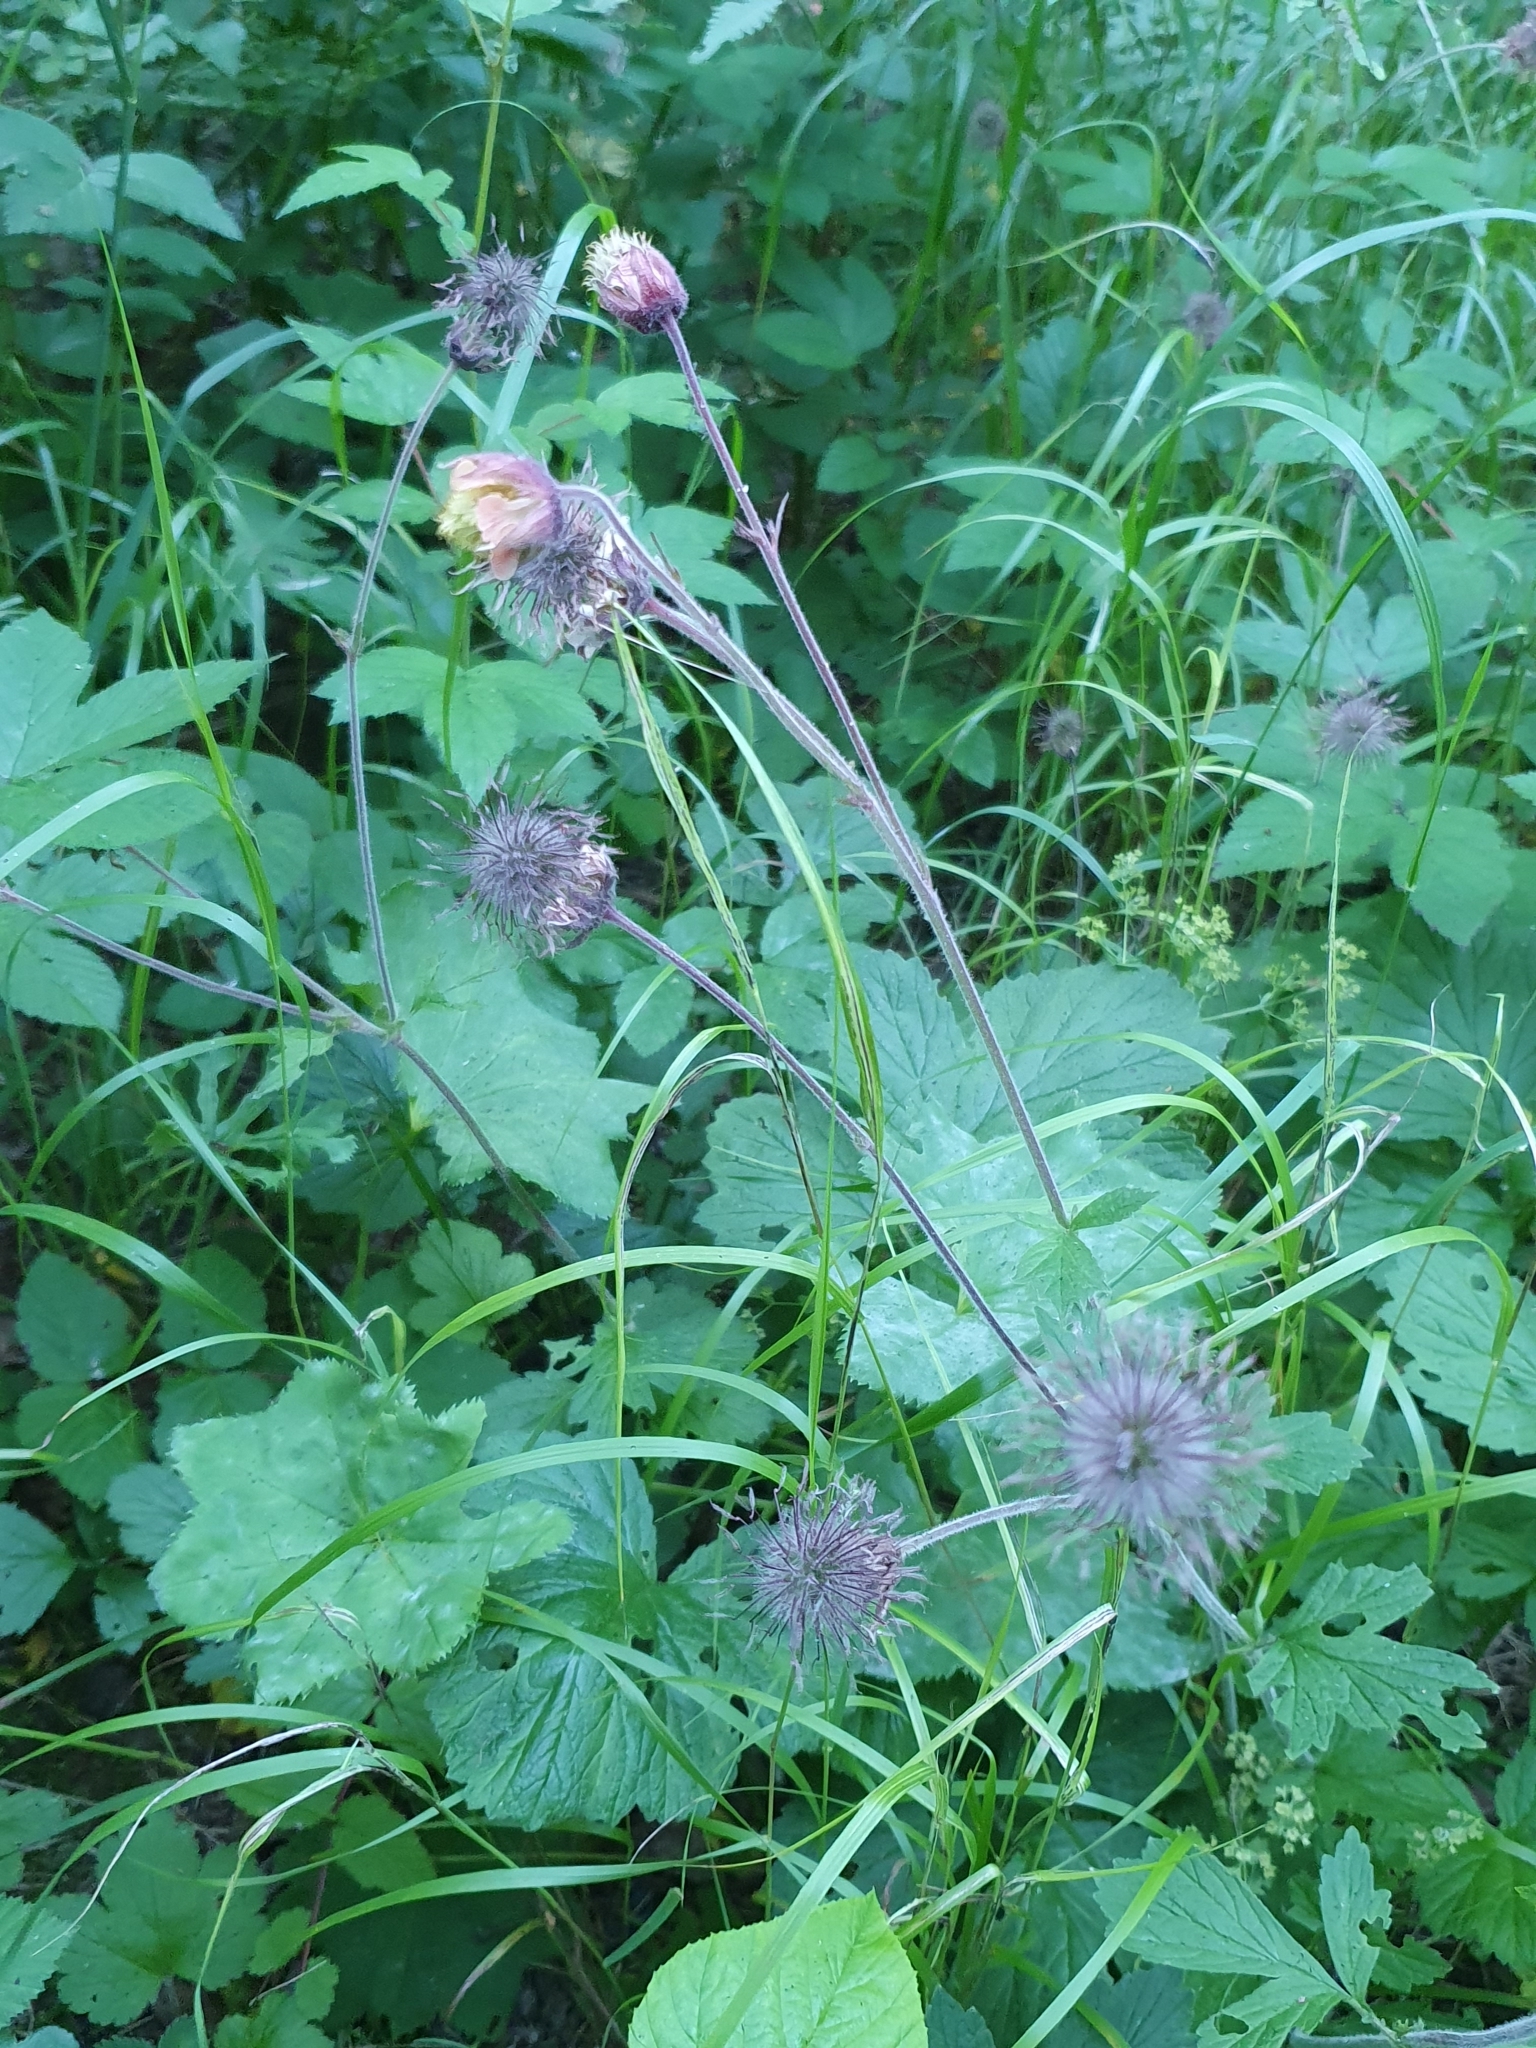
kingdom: Plantae
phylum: Tracheophyta
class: Magnoliopsida
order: Rosales
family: Rosaceae
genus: Geum
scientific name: Geum rivale
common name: Water avens
